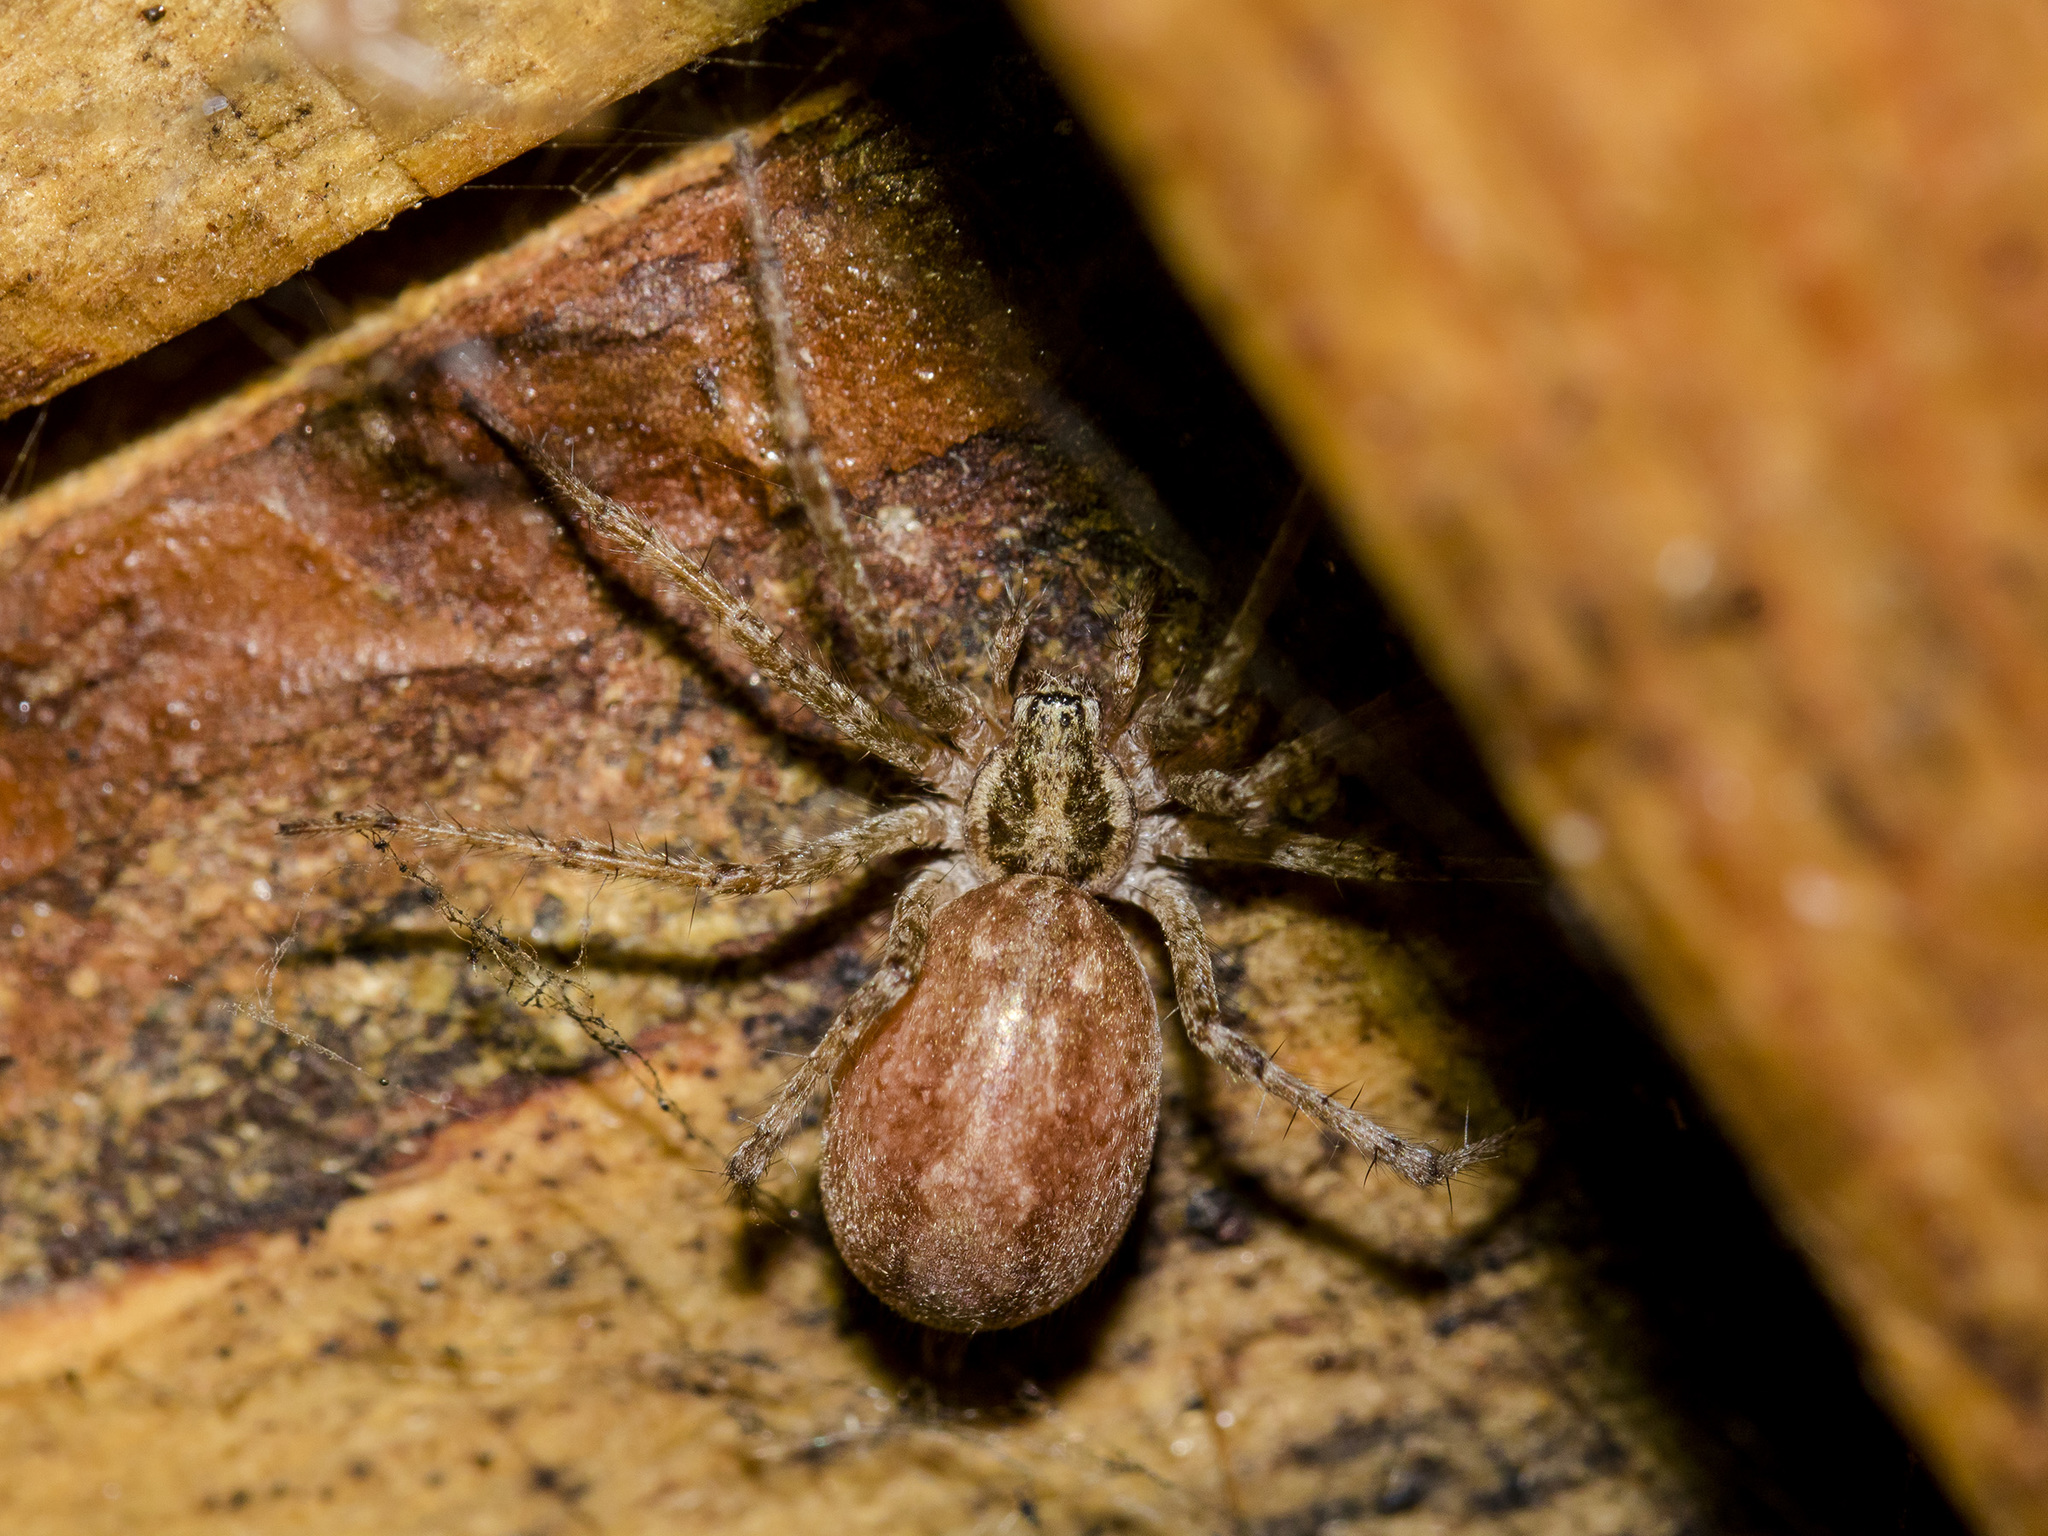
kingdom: Animalia
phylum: Arthropoda
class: Arachnida
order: Araneae
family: Agelenidae
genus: Allagelena
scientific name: Allagelena gracilens
